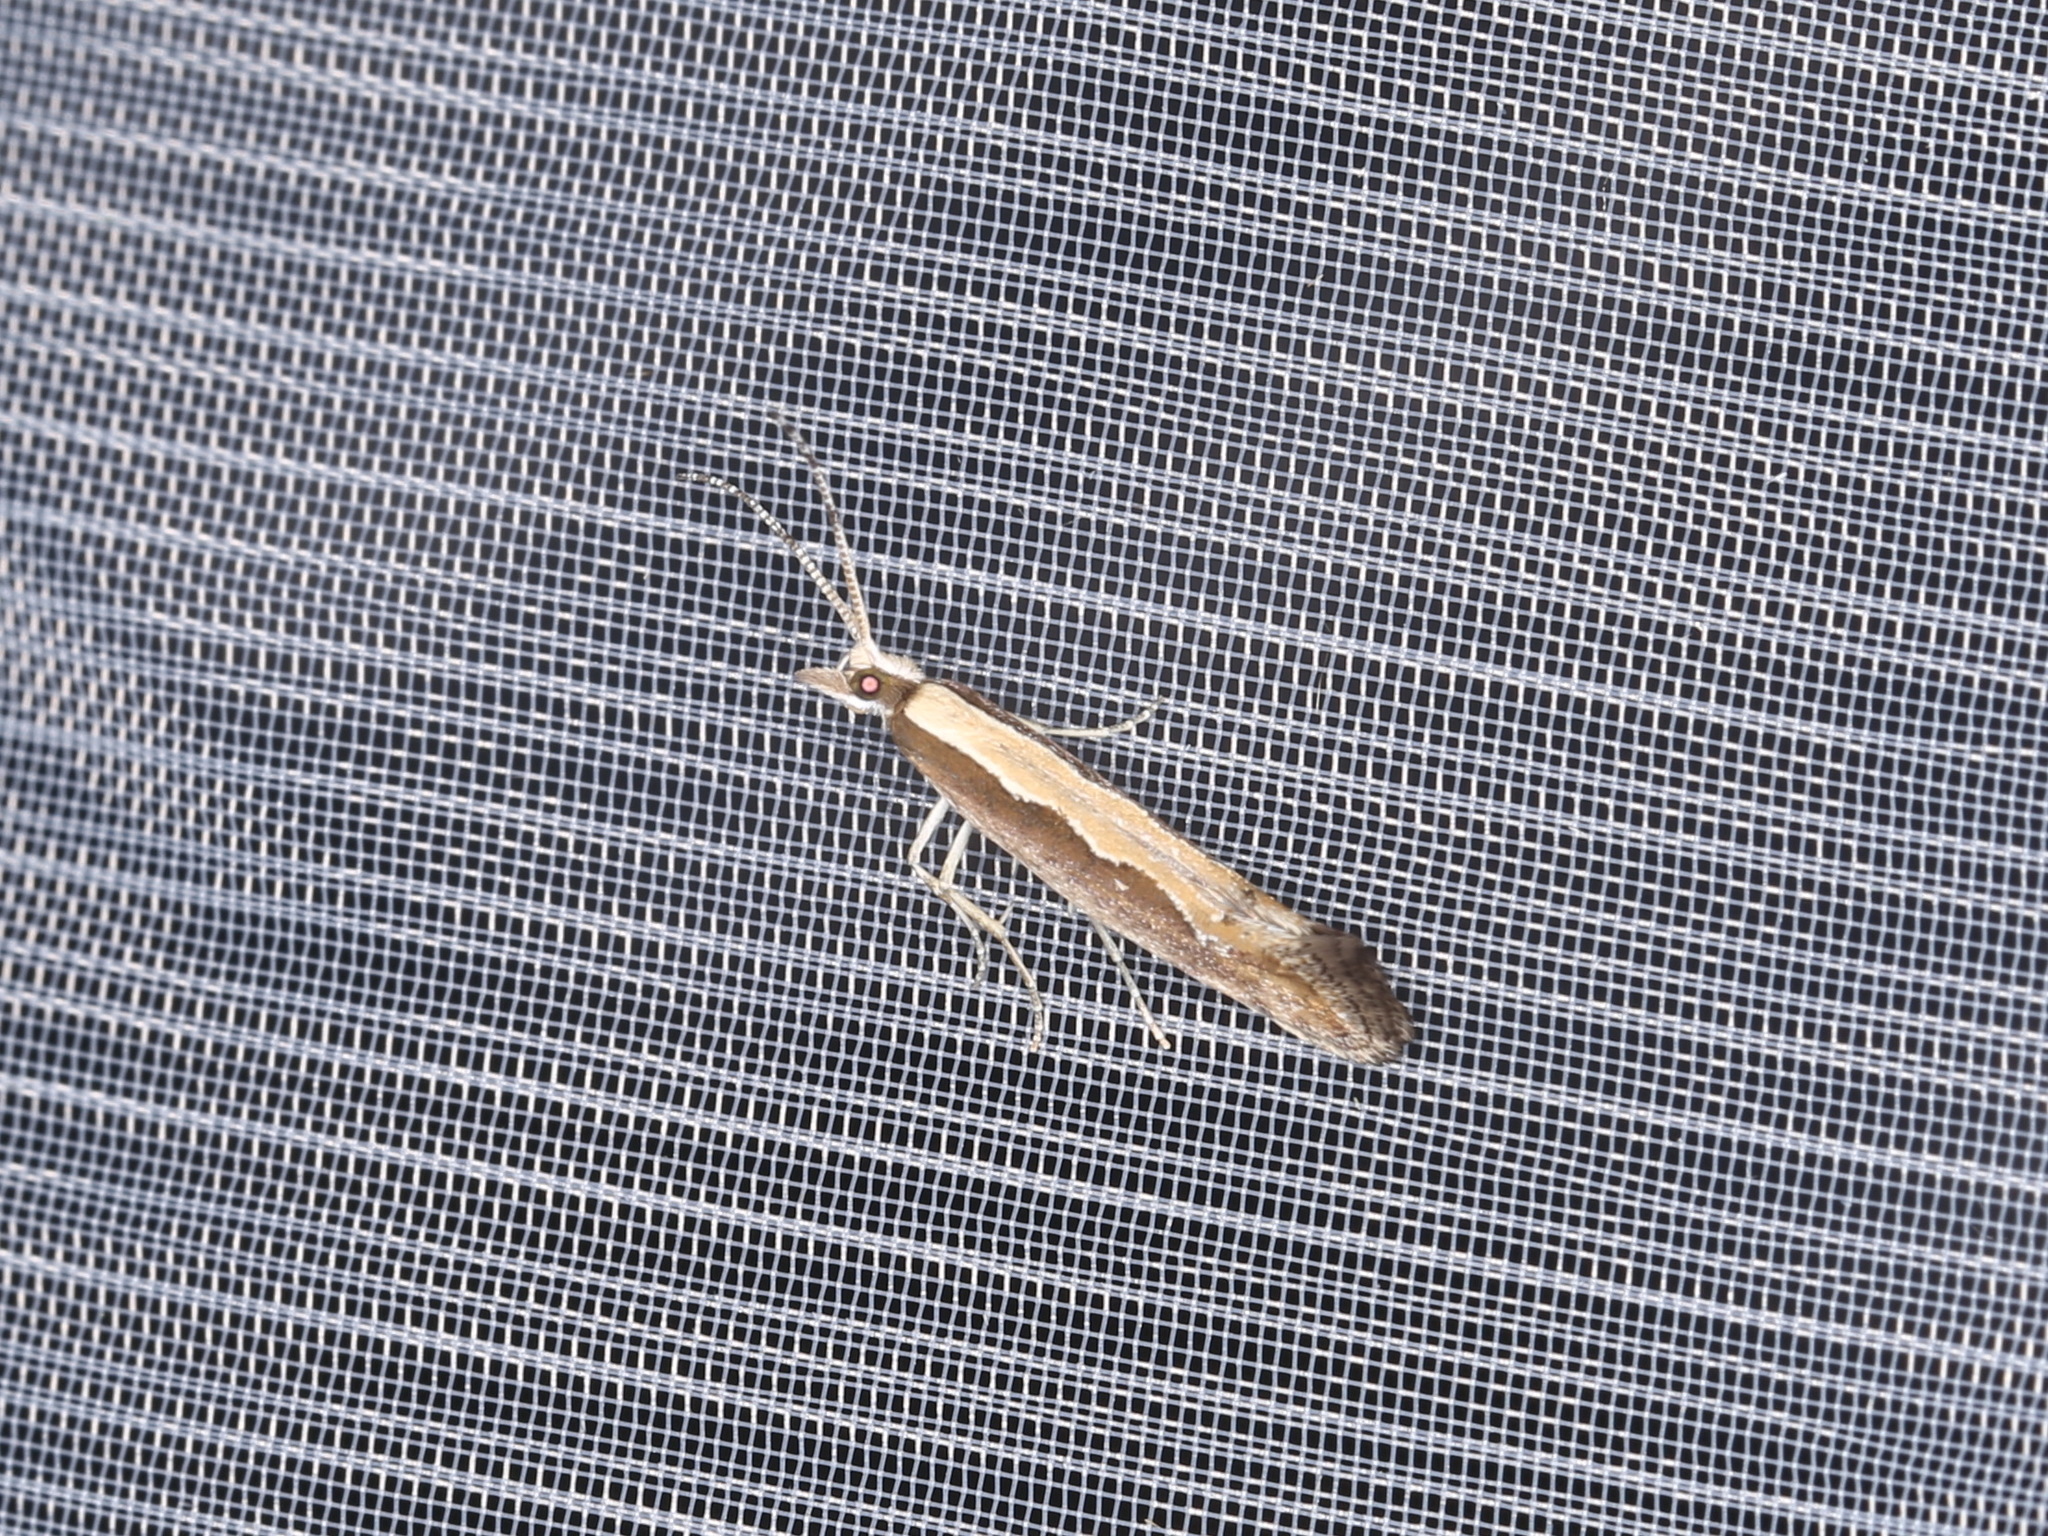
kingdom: Animalia
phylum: Arthropoda
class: Insecta
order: Lepidoptera
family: Plutellidae
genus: Plutella
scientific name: Plutella xylostella
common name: Diamond-back moth
